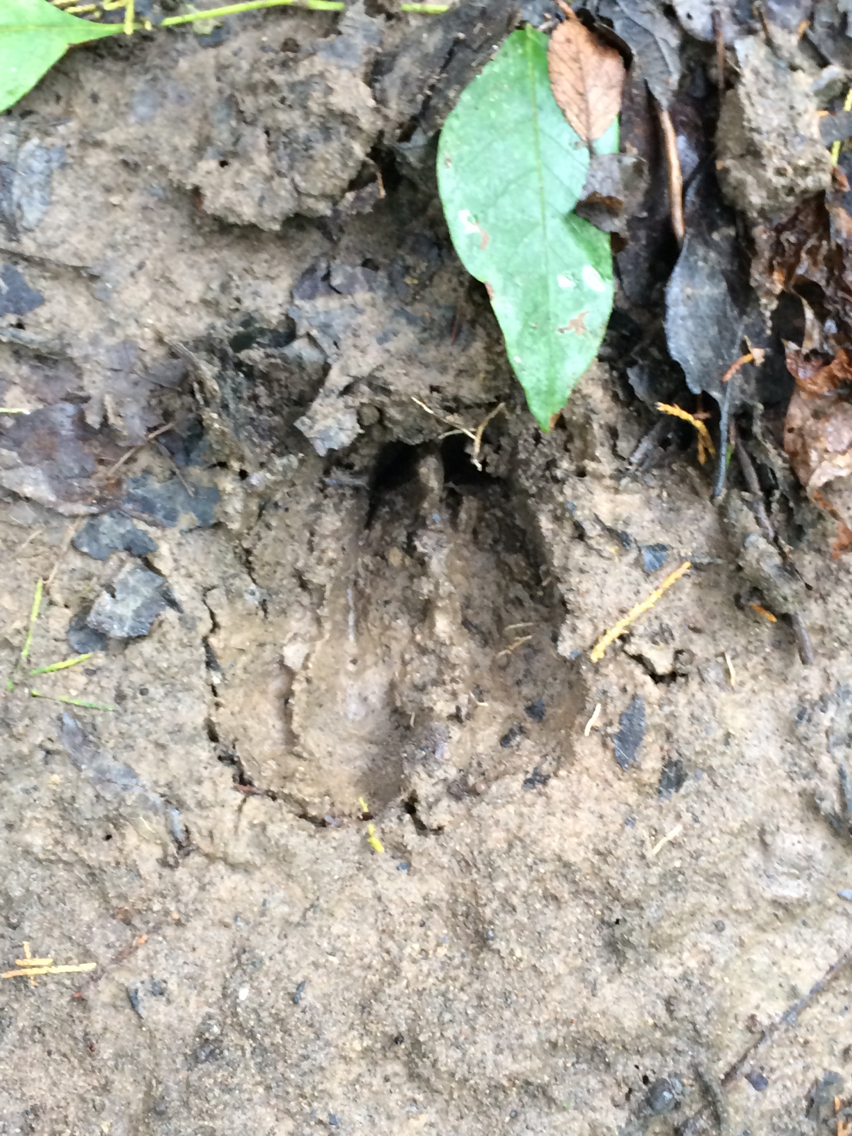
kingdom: Animalia
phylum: Chordata
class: Mammalia
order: Artiodactyla
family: Cervidae
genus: Odocoileus
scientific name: Odocoileus virginianus
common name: White-tailed deer
